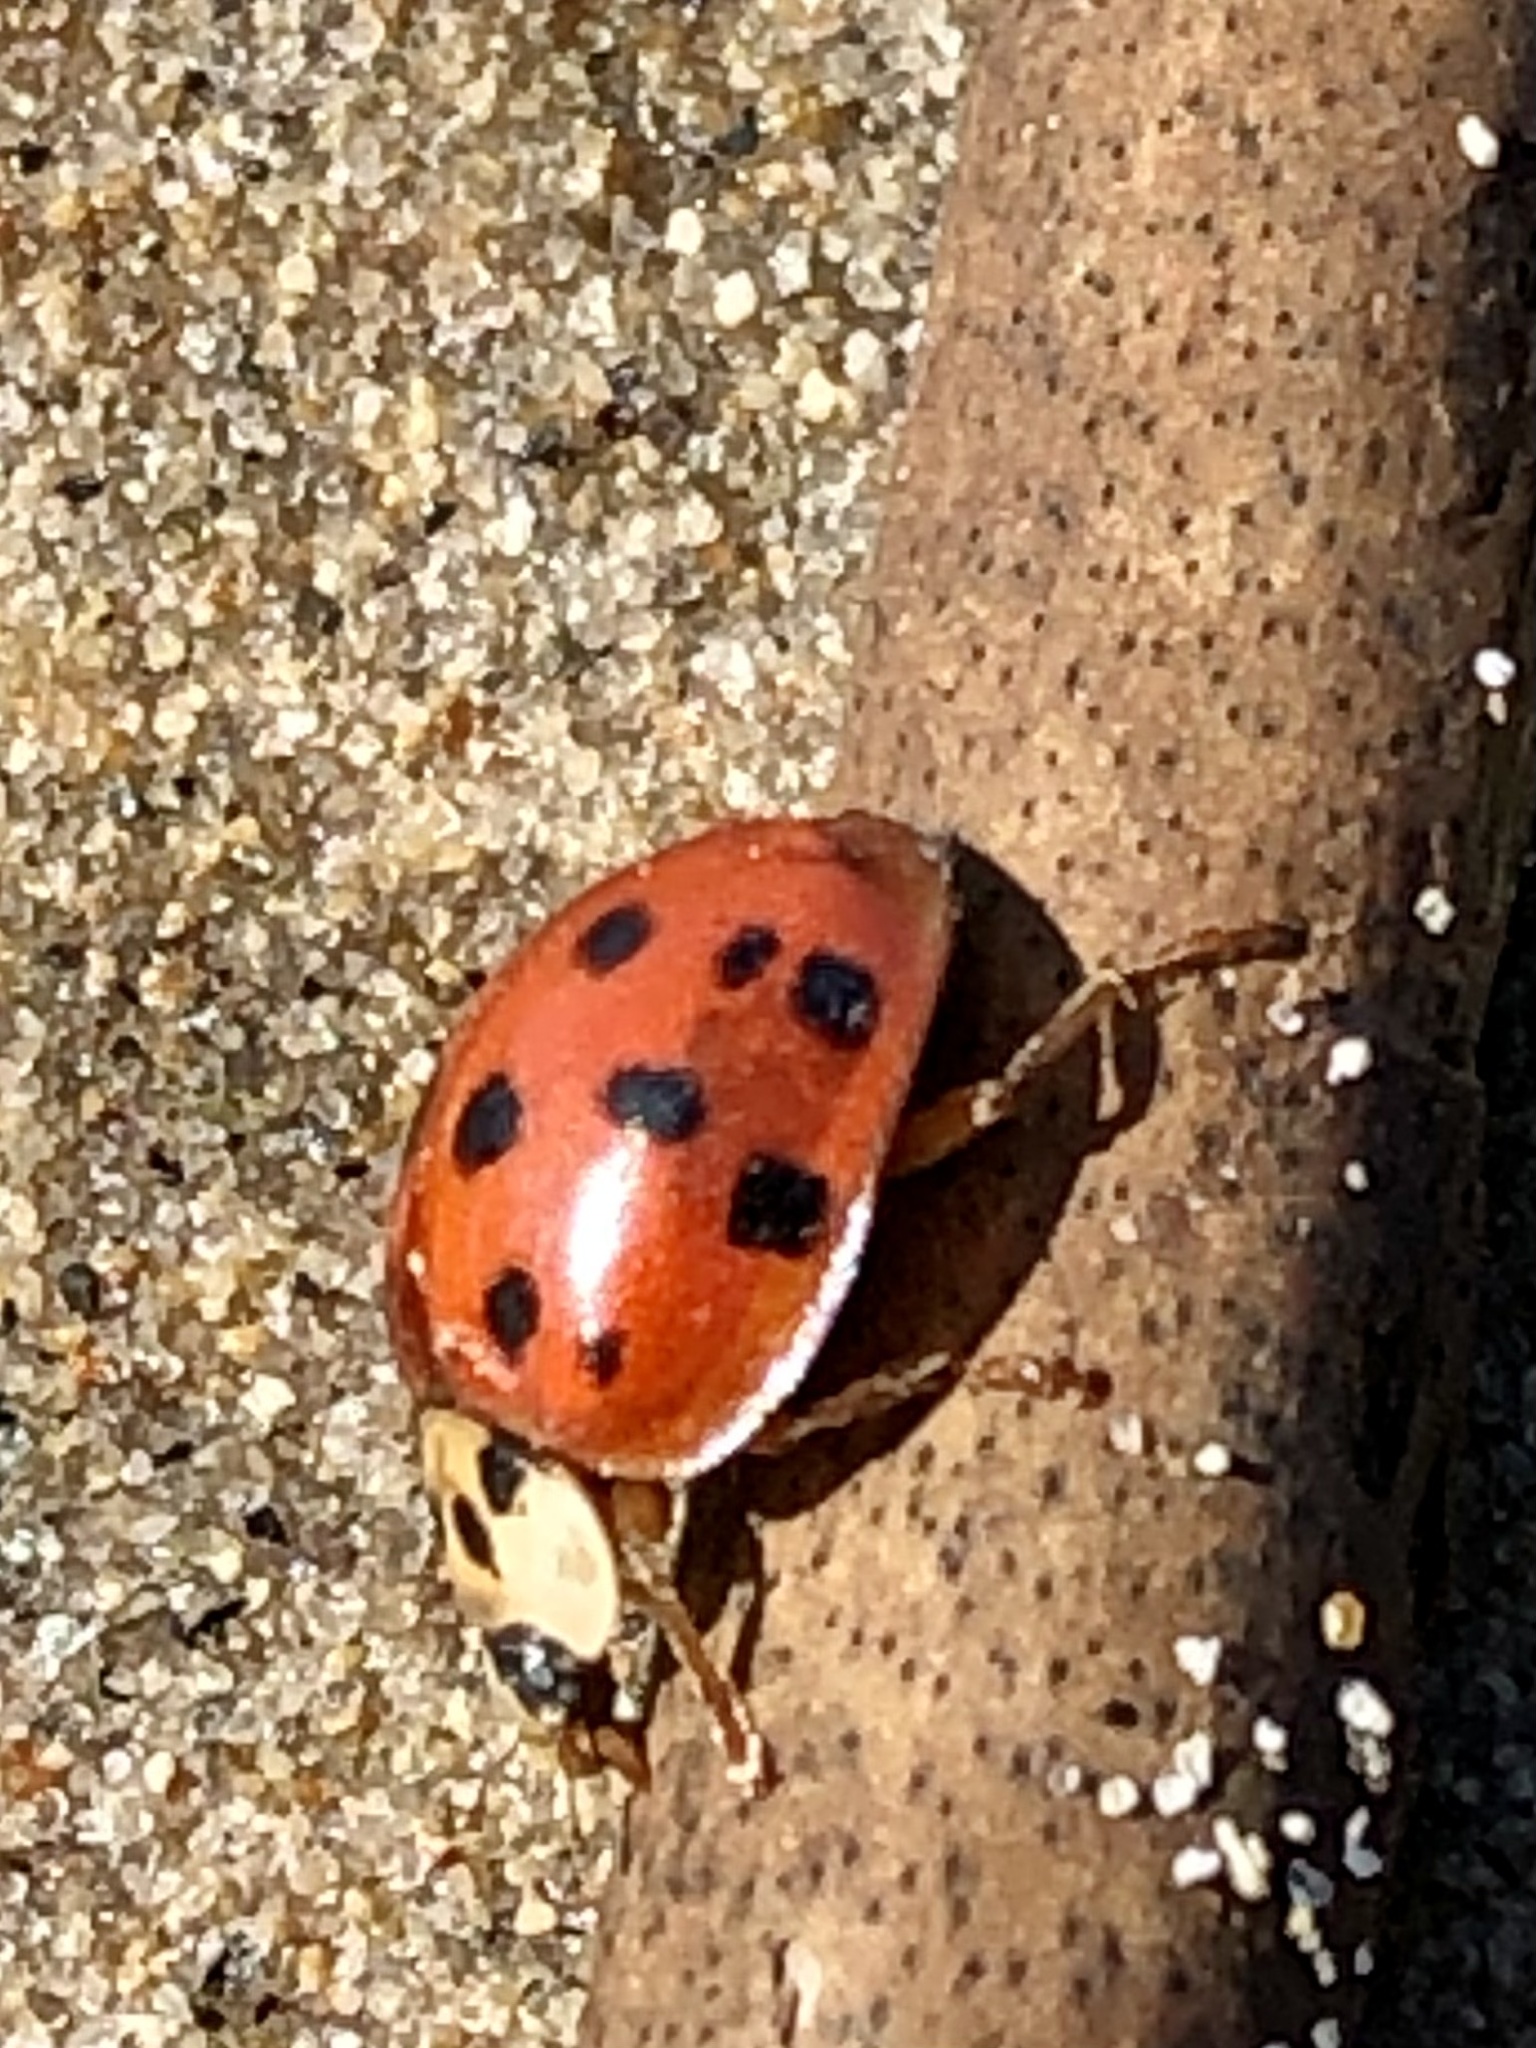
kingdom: Animalia
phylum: Arthropoda
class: Insecta
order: Coleoptera
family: Coccinellidae
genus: Harmonia
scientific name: Harmonia axyridis
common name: Harlequin ladybird
